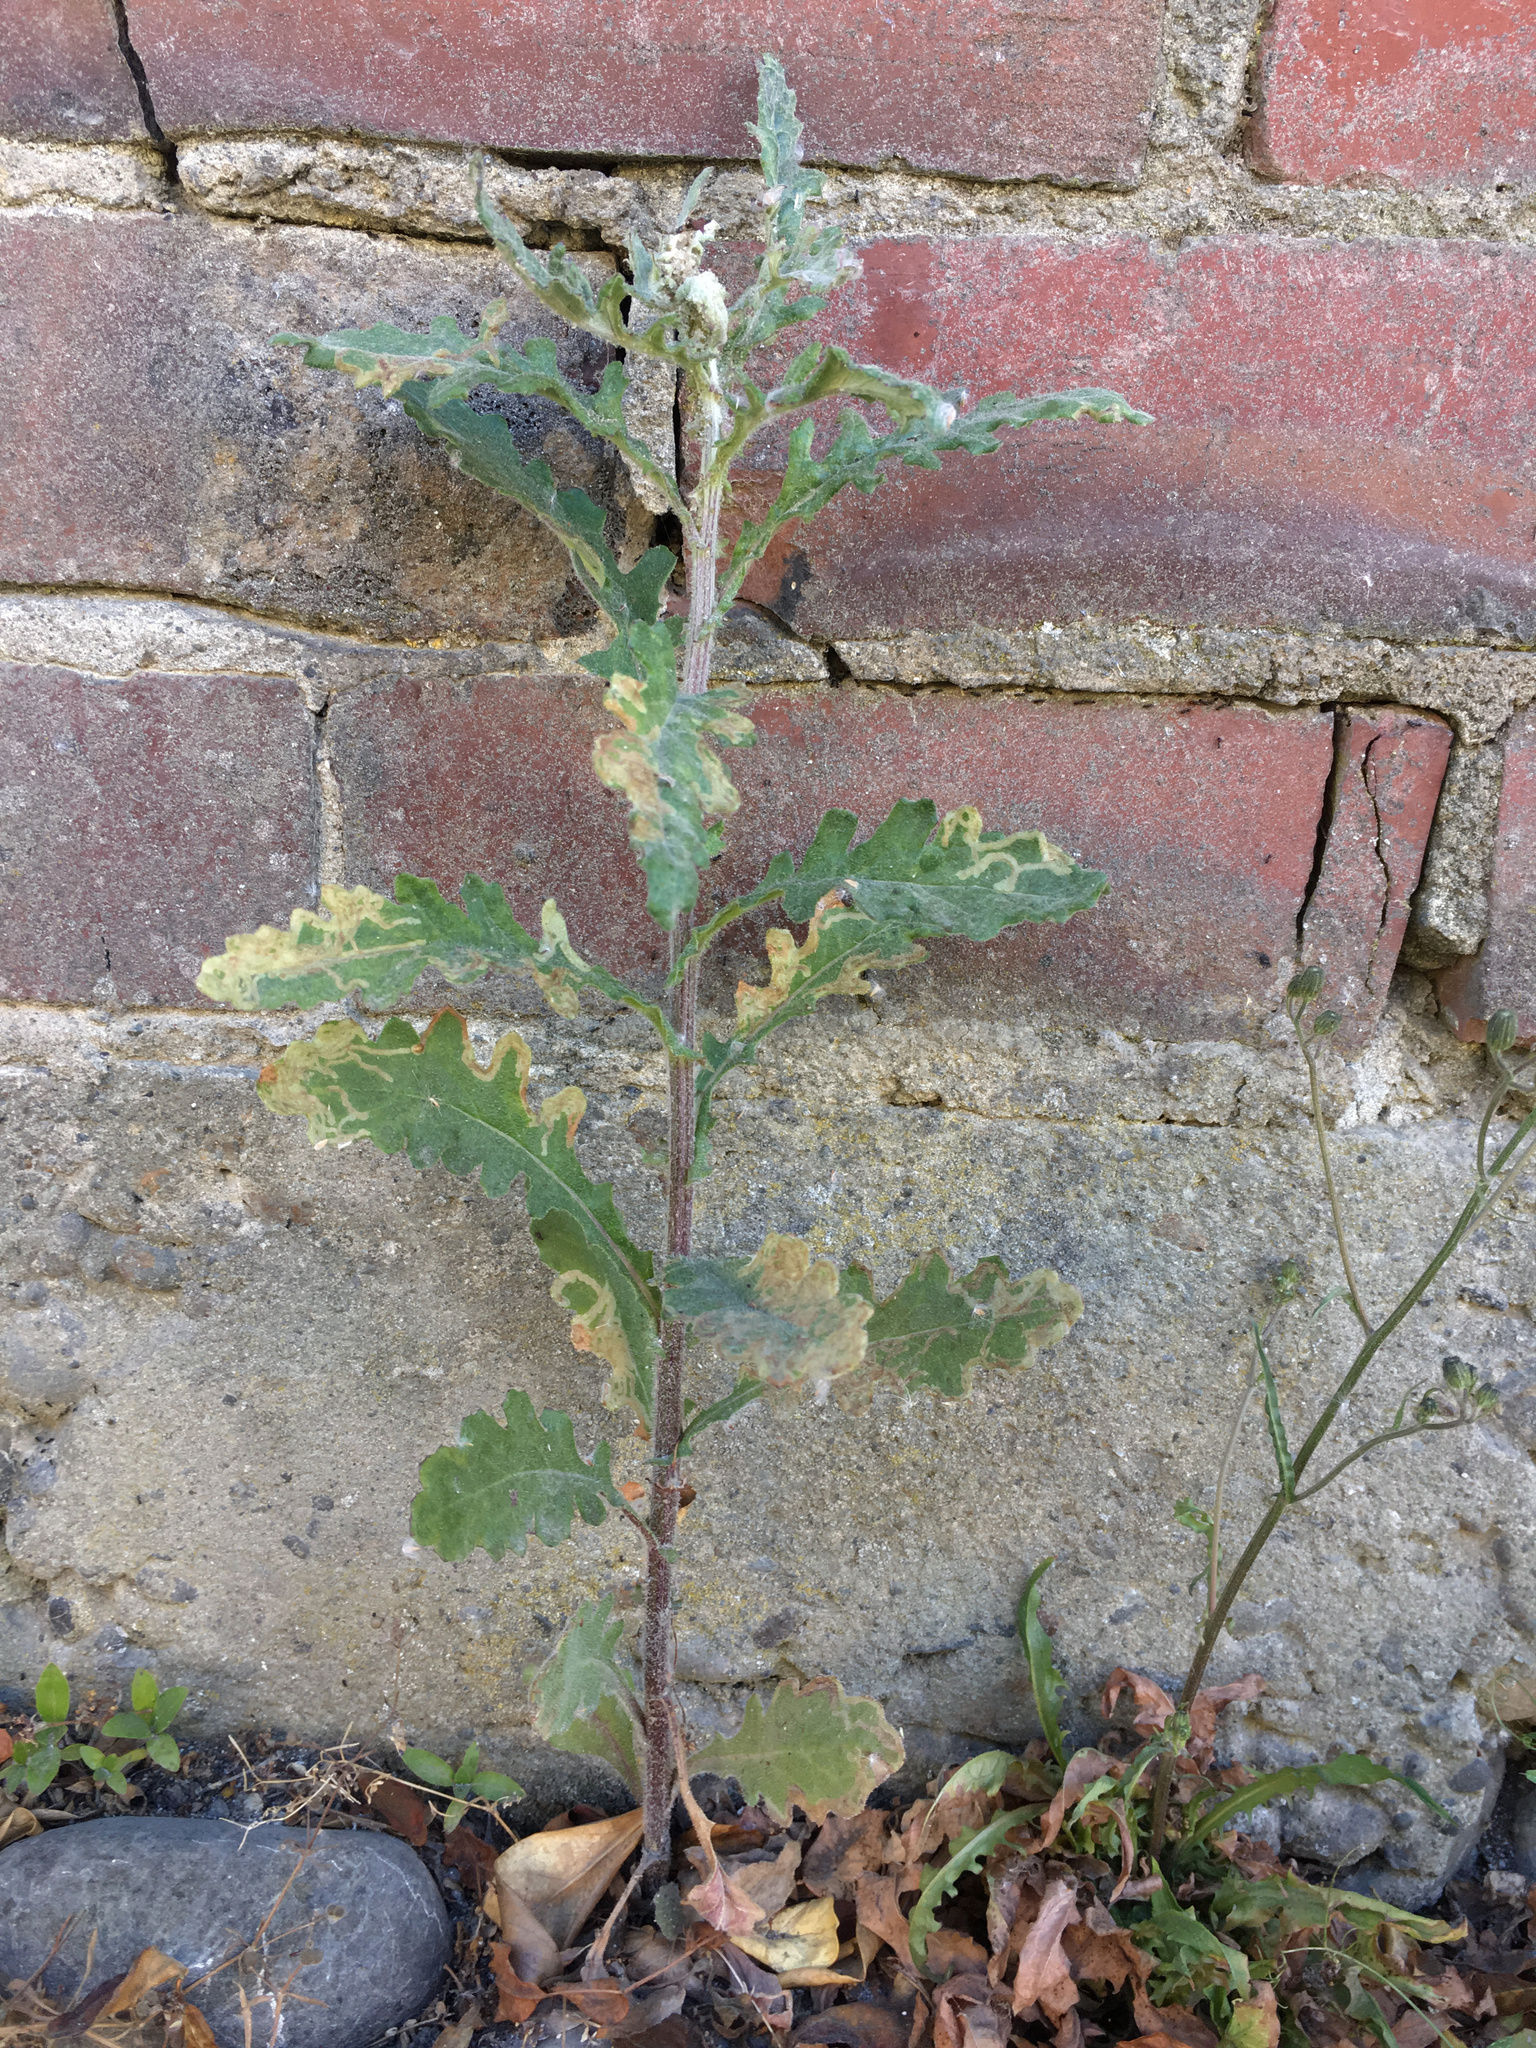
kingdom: Plantae
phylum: Tracheophyta
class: Magnoliopsida
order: Asterales
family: Asteraceae
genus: Senecio
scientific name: Senecio glomeratus
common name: Cutleaf burnweed
